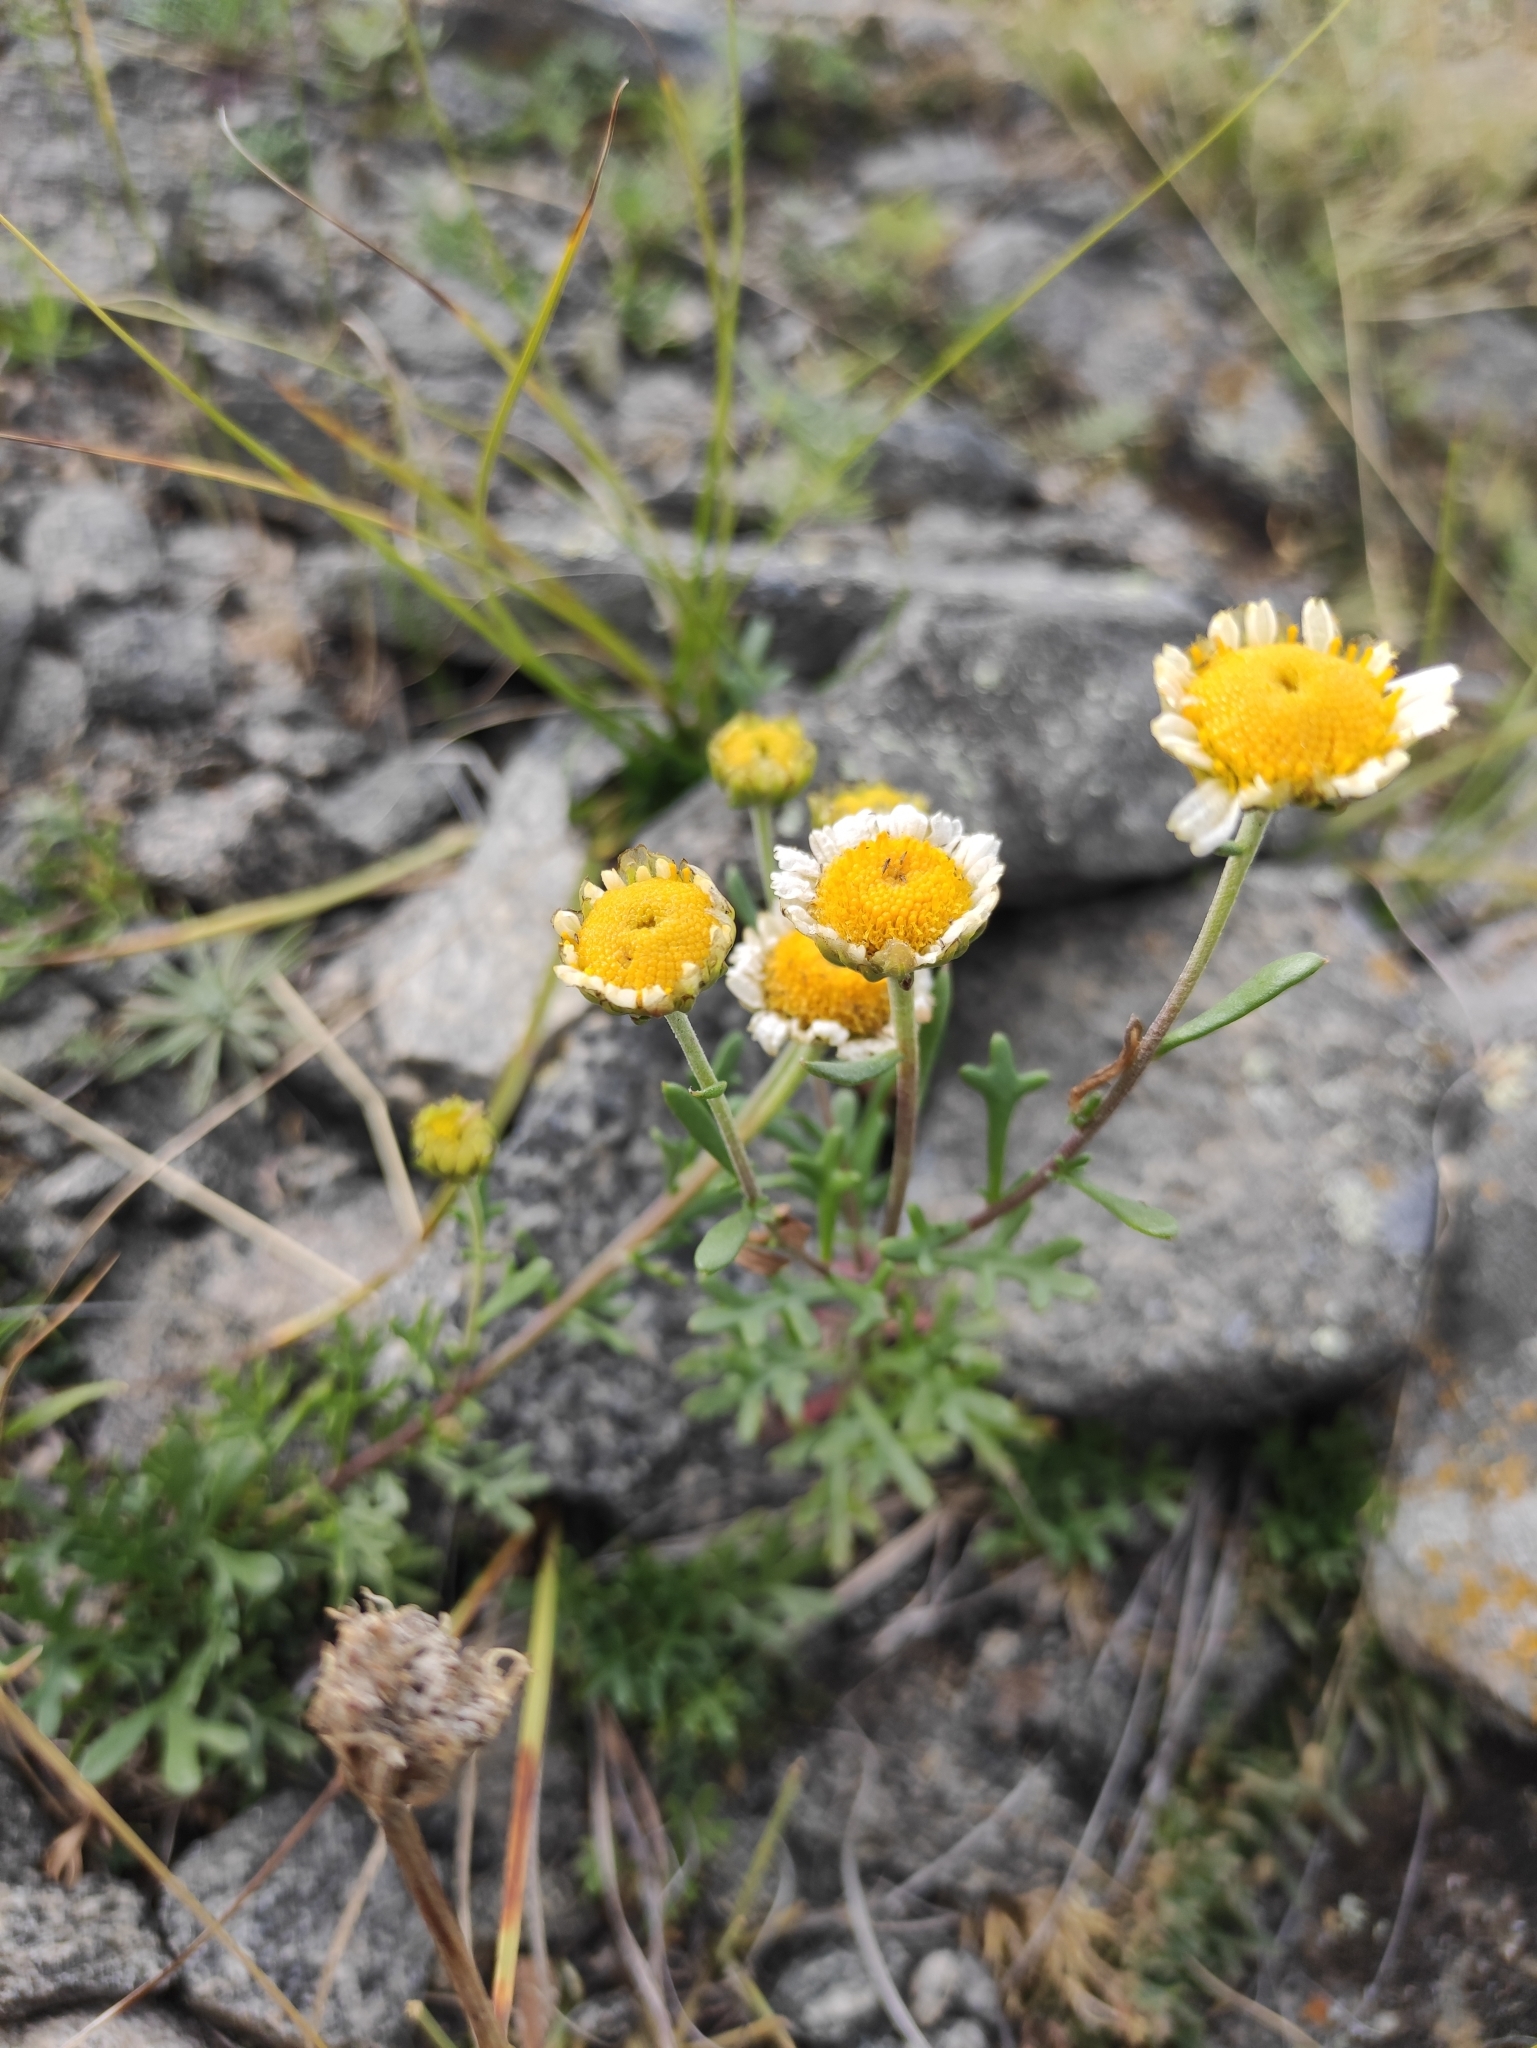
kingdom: Plantae
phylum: Tracheophyta
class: Magnoliopsida
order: Asterales
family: Asteraceae
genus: Chrysanthemum
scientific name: Chrysanthemum zawadzkii
